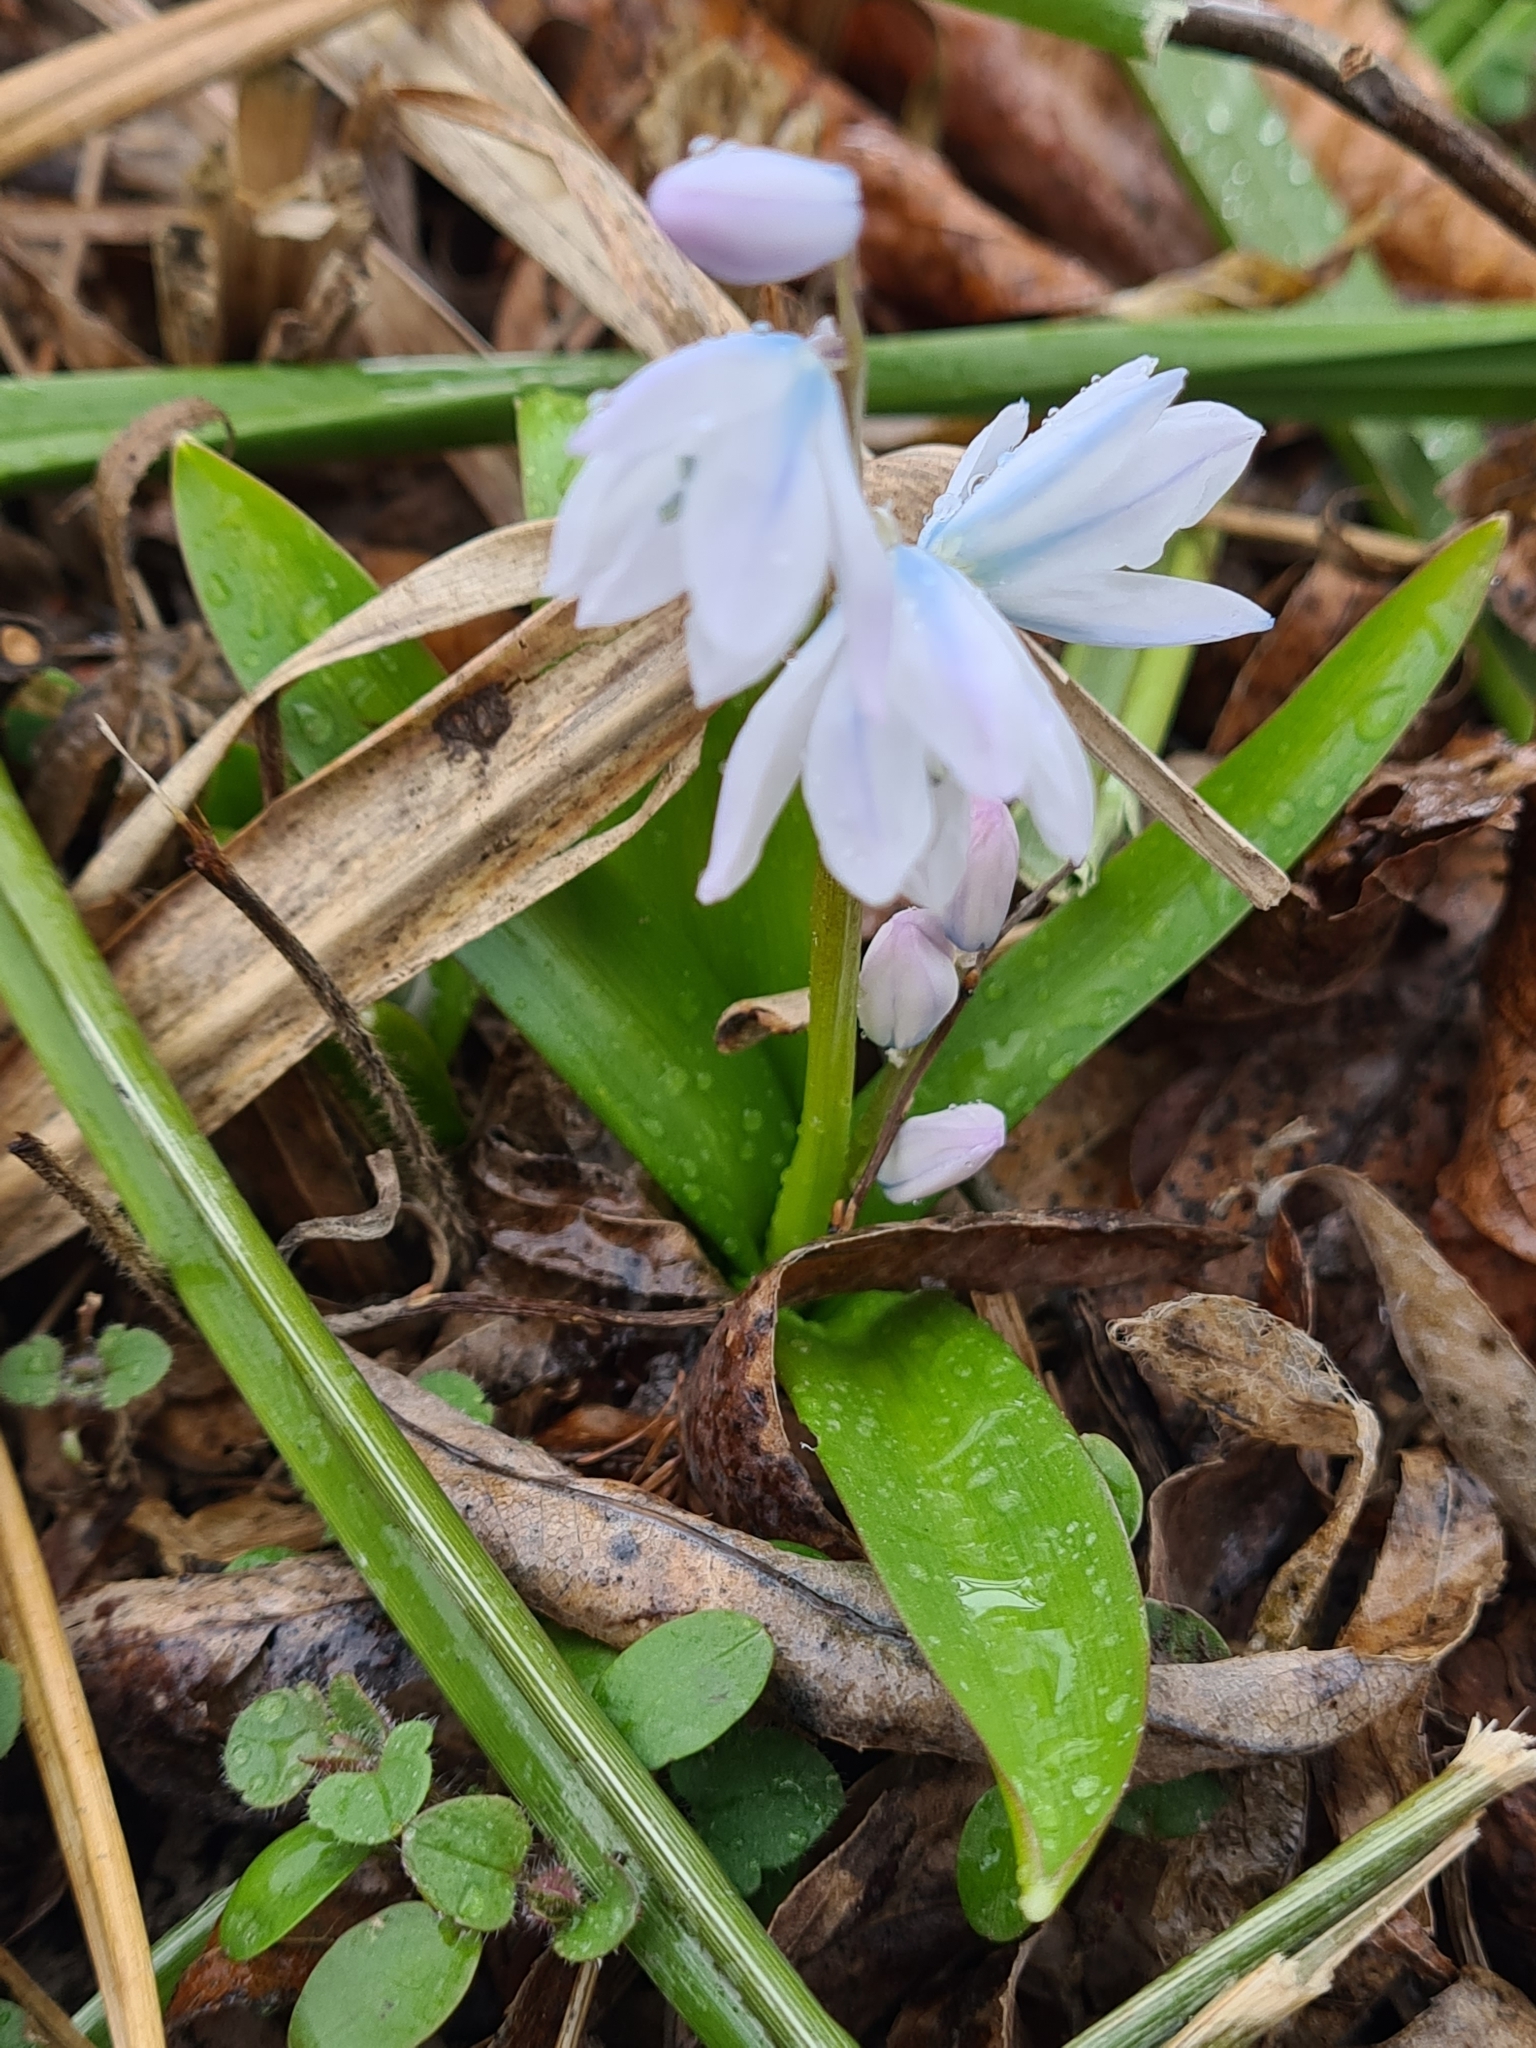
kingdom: Plantae
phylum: Tracheophyta
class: Liliopsida
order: Asparagales
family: Asparagaceae
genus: Scilla
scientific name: Scilla mischtschenkoana
